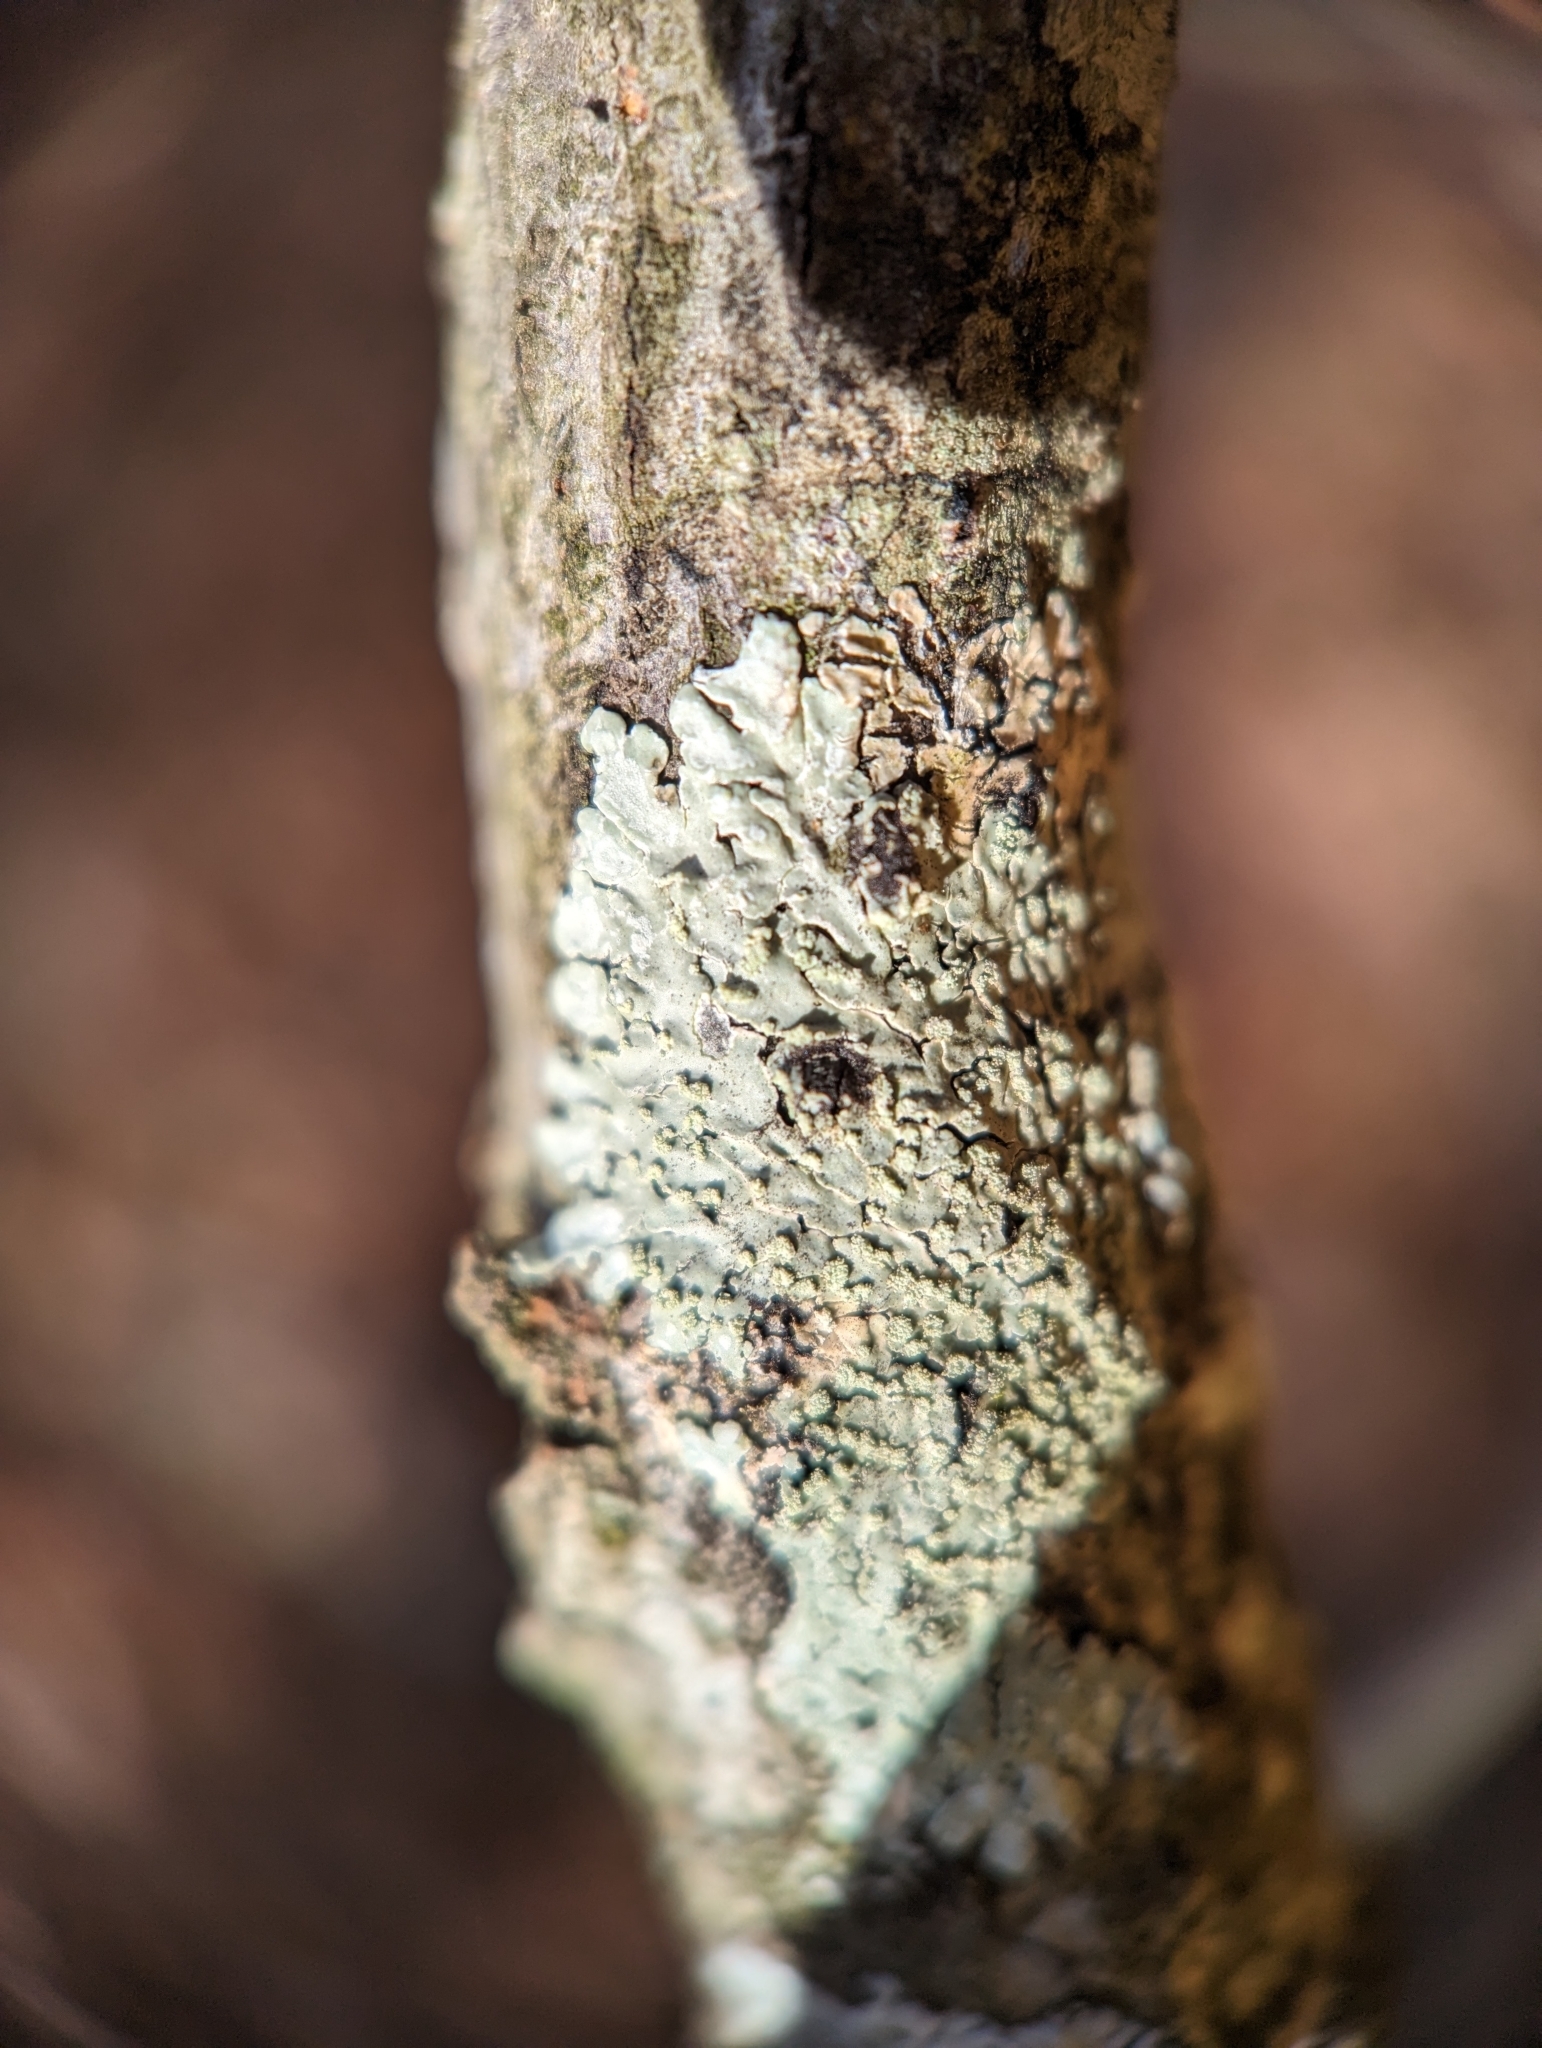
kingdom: Fungi
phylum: Ascomycota
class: Lecanoromycetes
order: Caliciales
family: Caliciaceae
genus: Pyxine
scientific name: Pyxine subcinerea
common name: Mustard lichen
